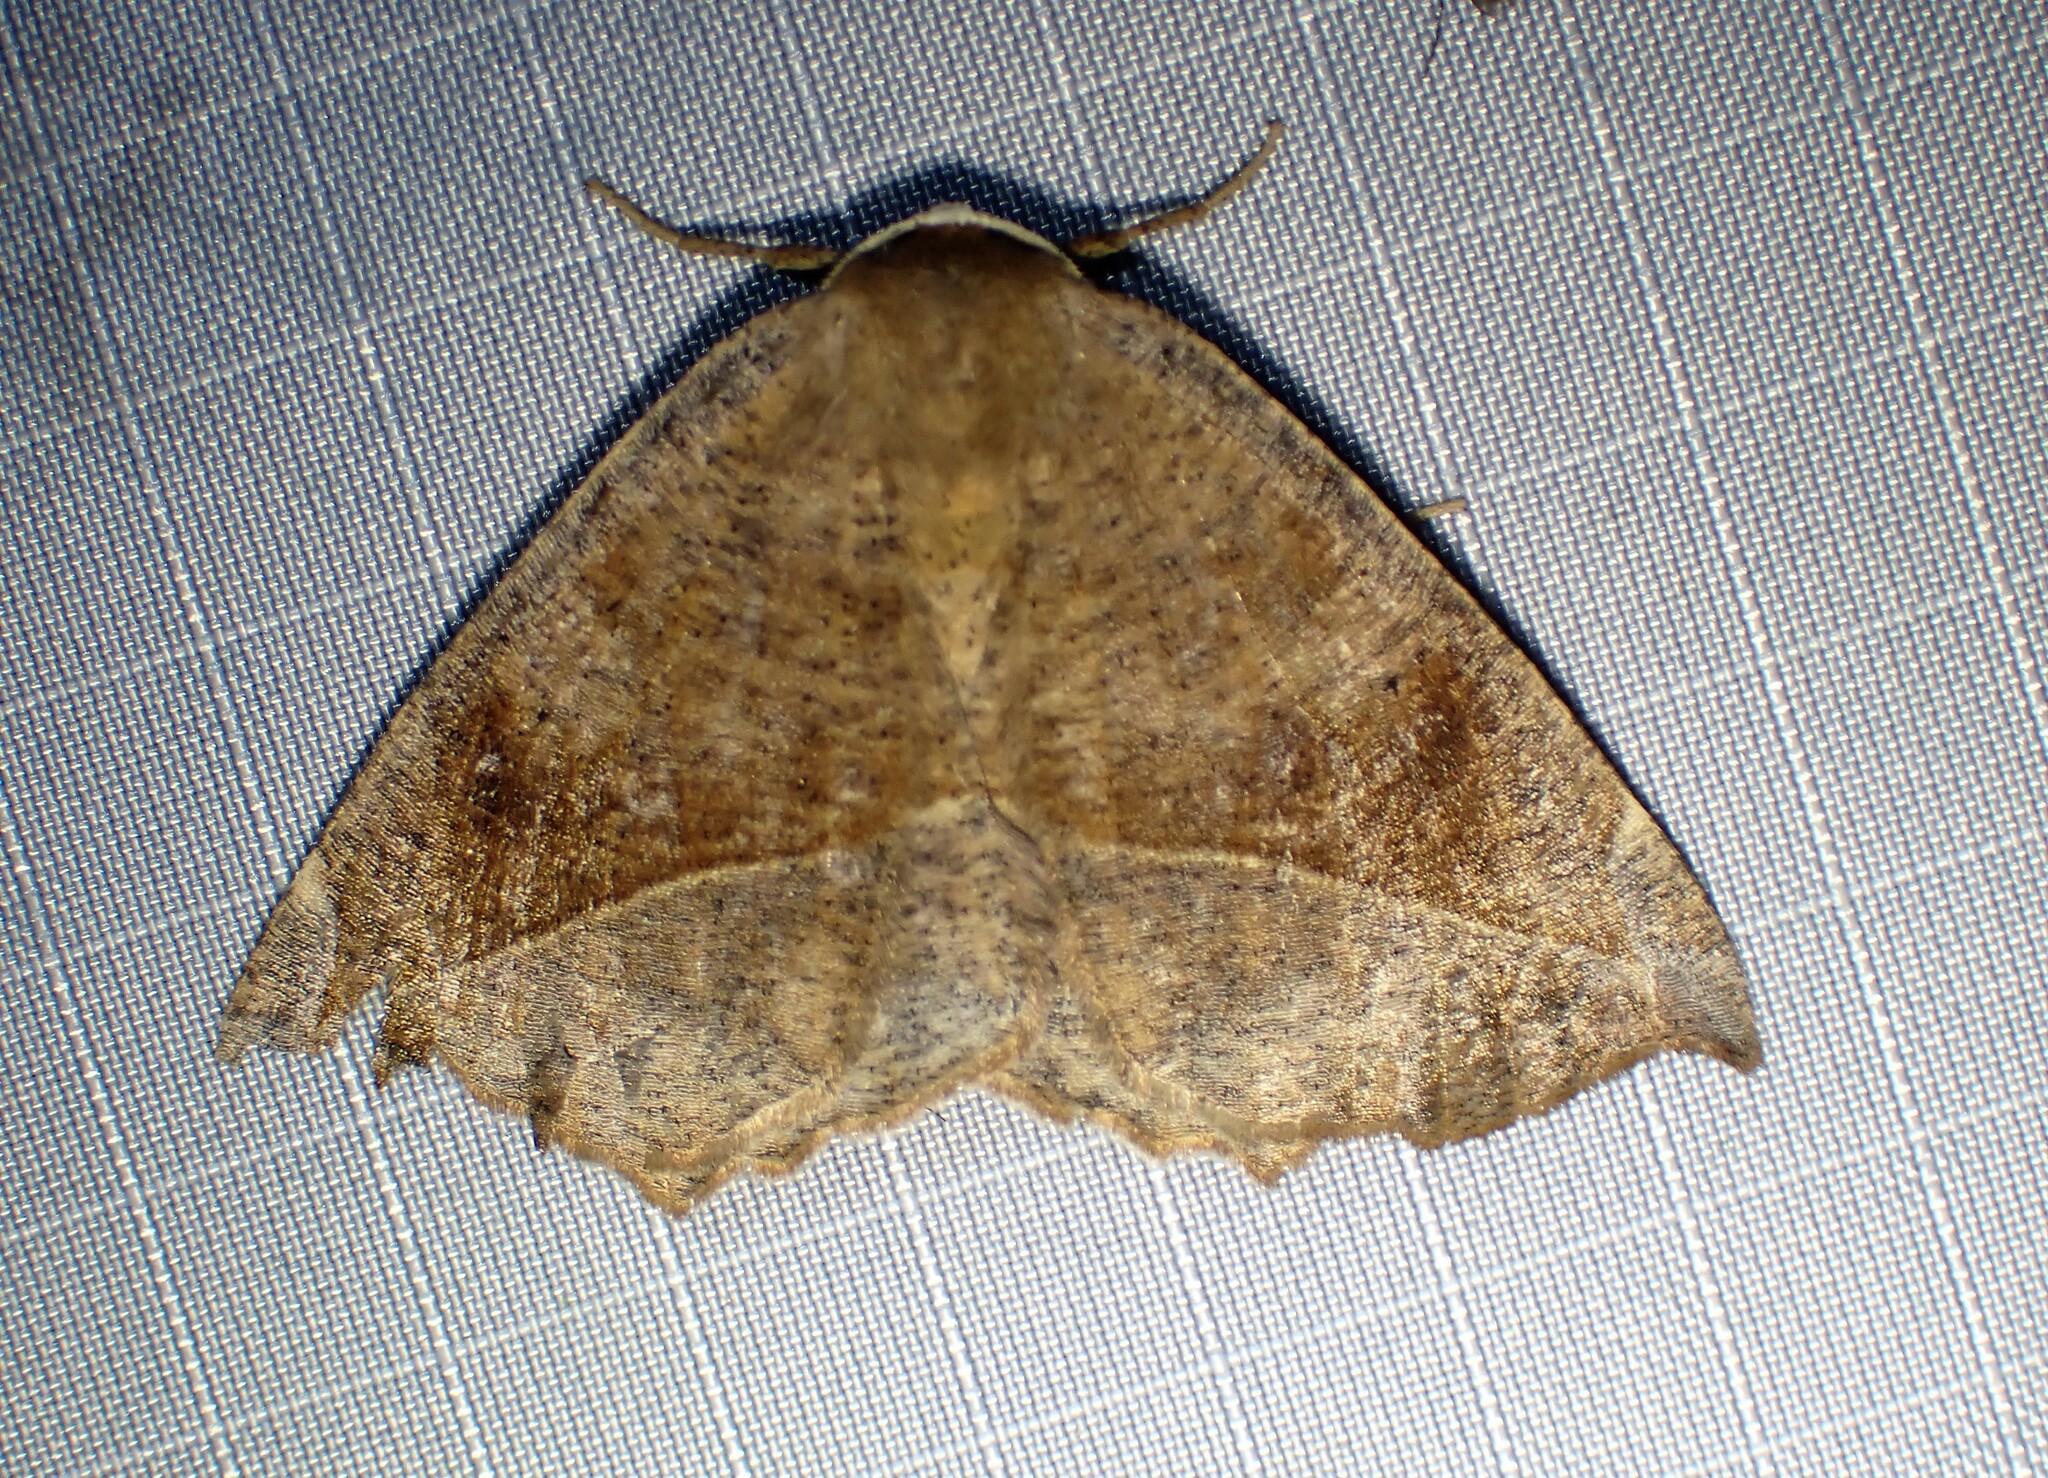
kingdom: Animalia
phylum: Arthropoda
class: Insecta
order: Lepidoptera
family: Geometridae
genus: Eutrapela
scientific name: Eutrapela clemataria
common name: Curved-toothed geometer
